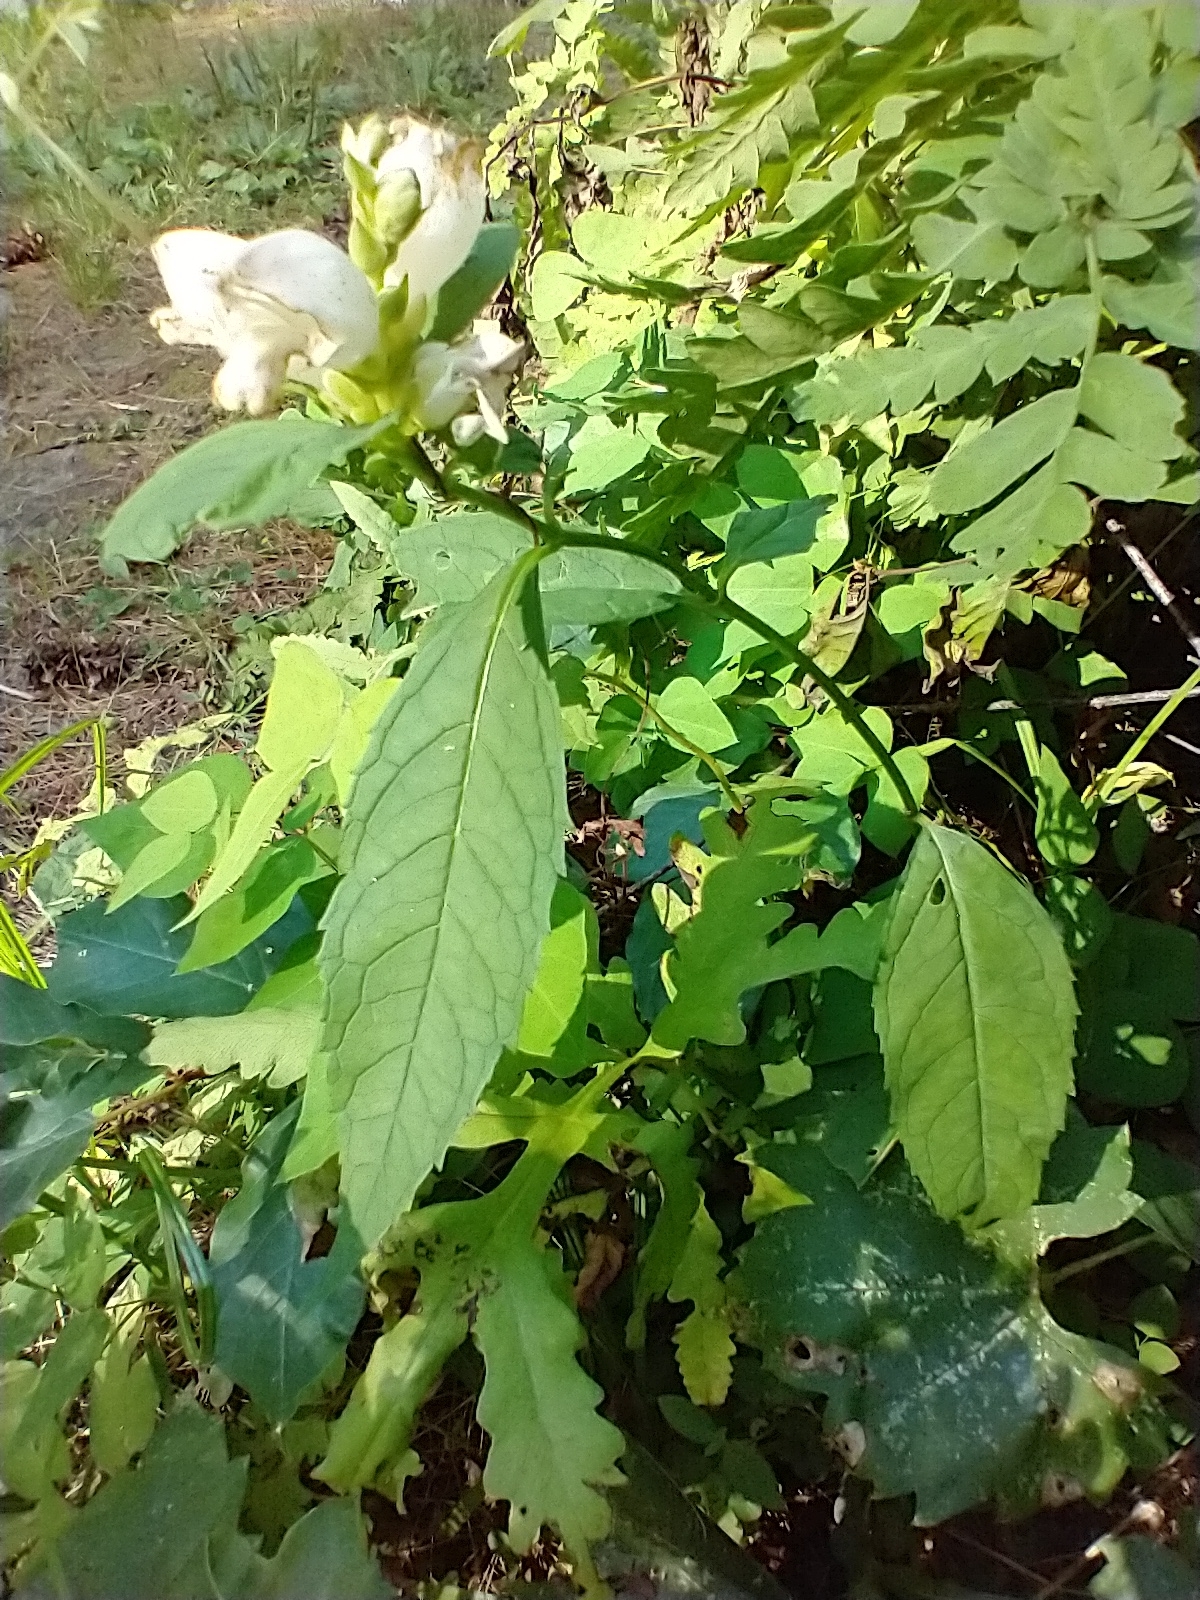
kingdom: Plantae
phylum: Tracheophyta
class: Magnoliopsida
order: Lamiales
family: Plantaginaceae
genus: Chelone
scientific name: Chelone glabra
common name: Snakehead
